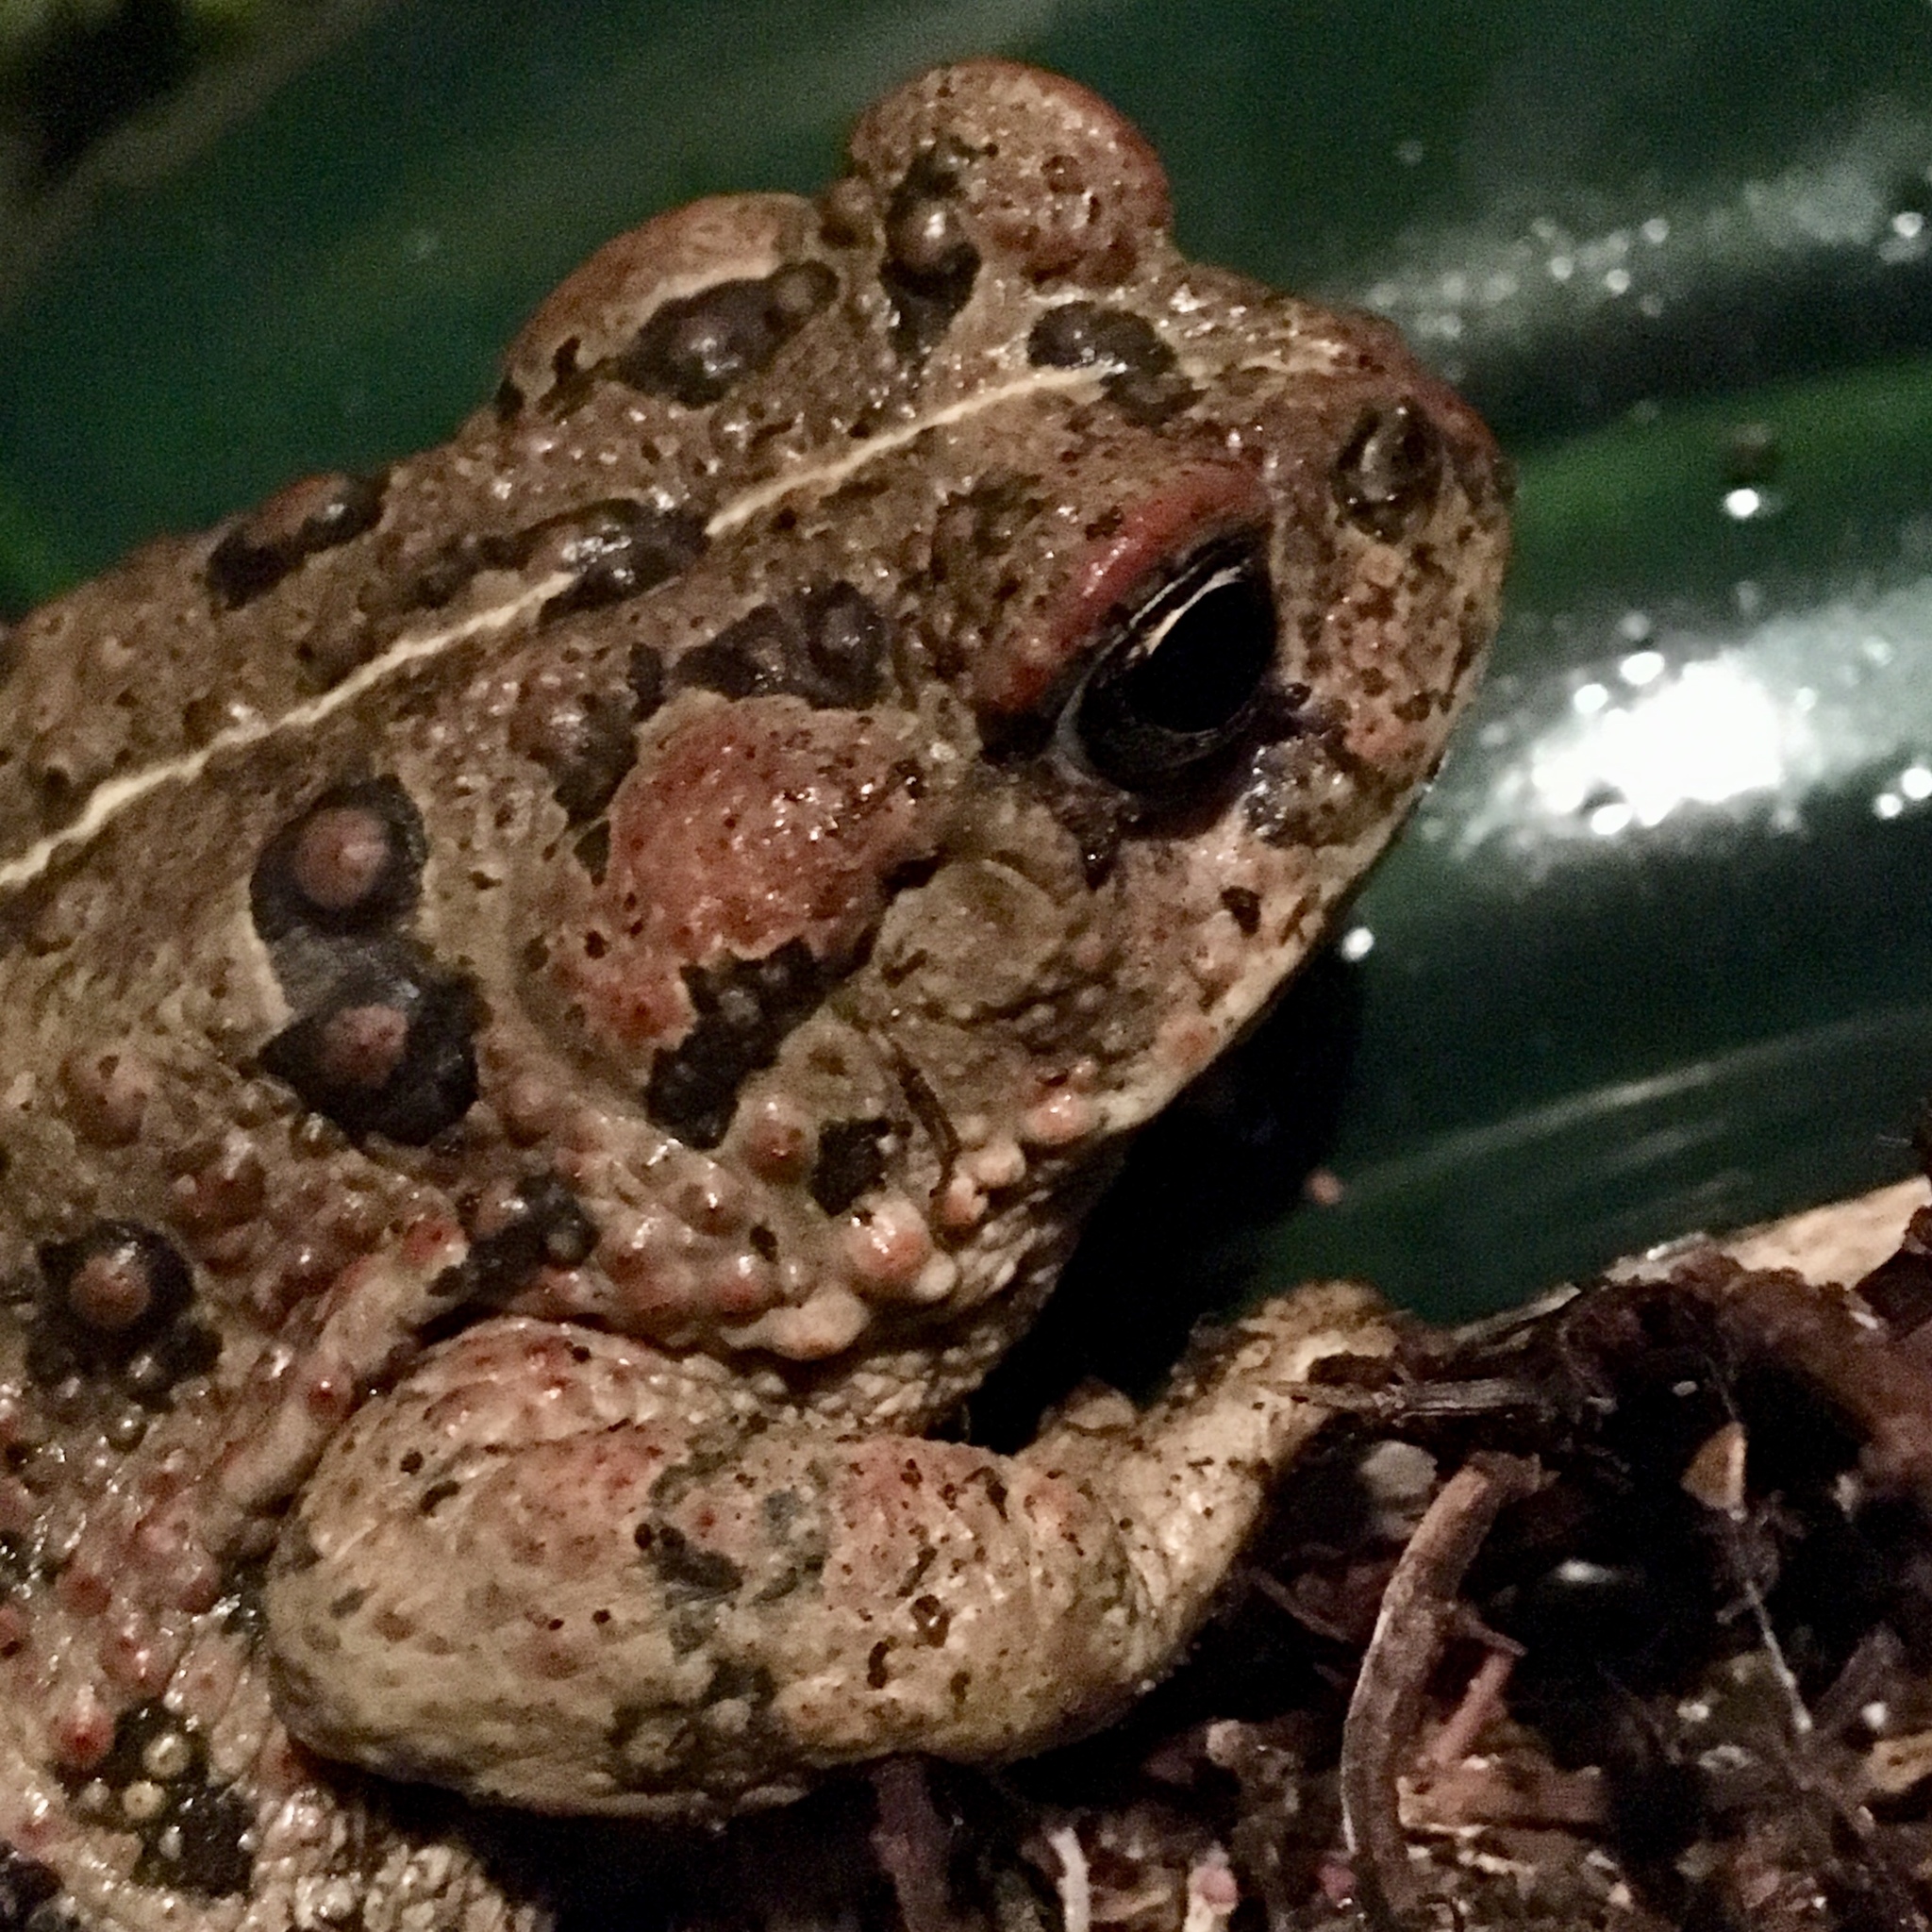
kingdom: Animalia
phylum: Chordata
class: Amphibia
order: Anura
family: Bufonidae
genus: Anaxyrus
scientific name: Anaxyrus boreas
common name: Western toad
